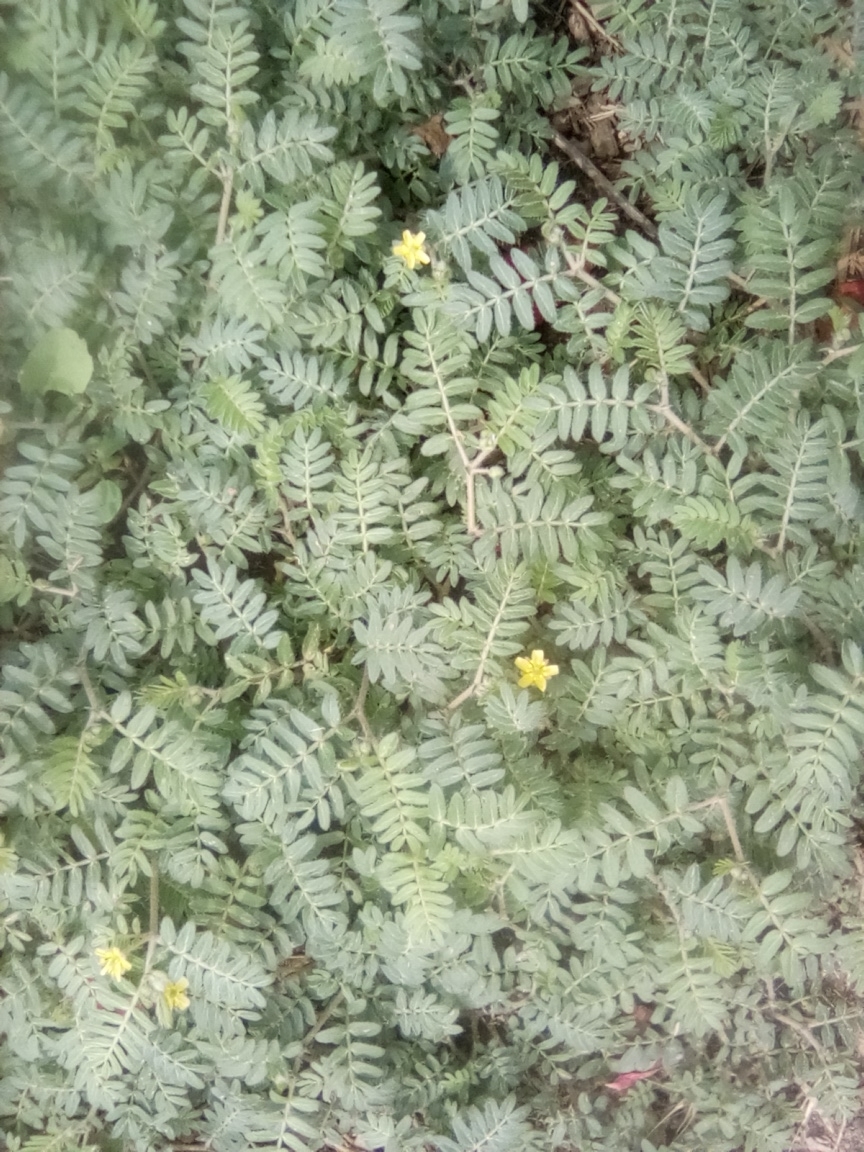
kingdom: Plantae
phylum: Tracheophyta
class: Magnoliopsida
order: Zygophyllales
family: Zygophyllaceae
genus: Tribulus
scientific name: Tribulus terrestris
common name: Puncturevine
